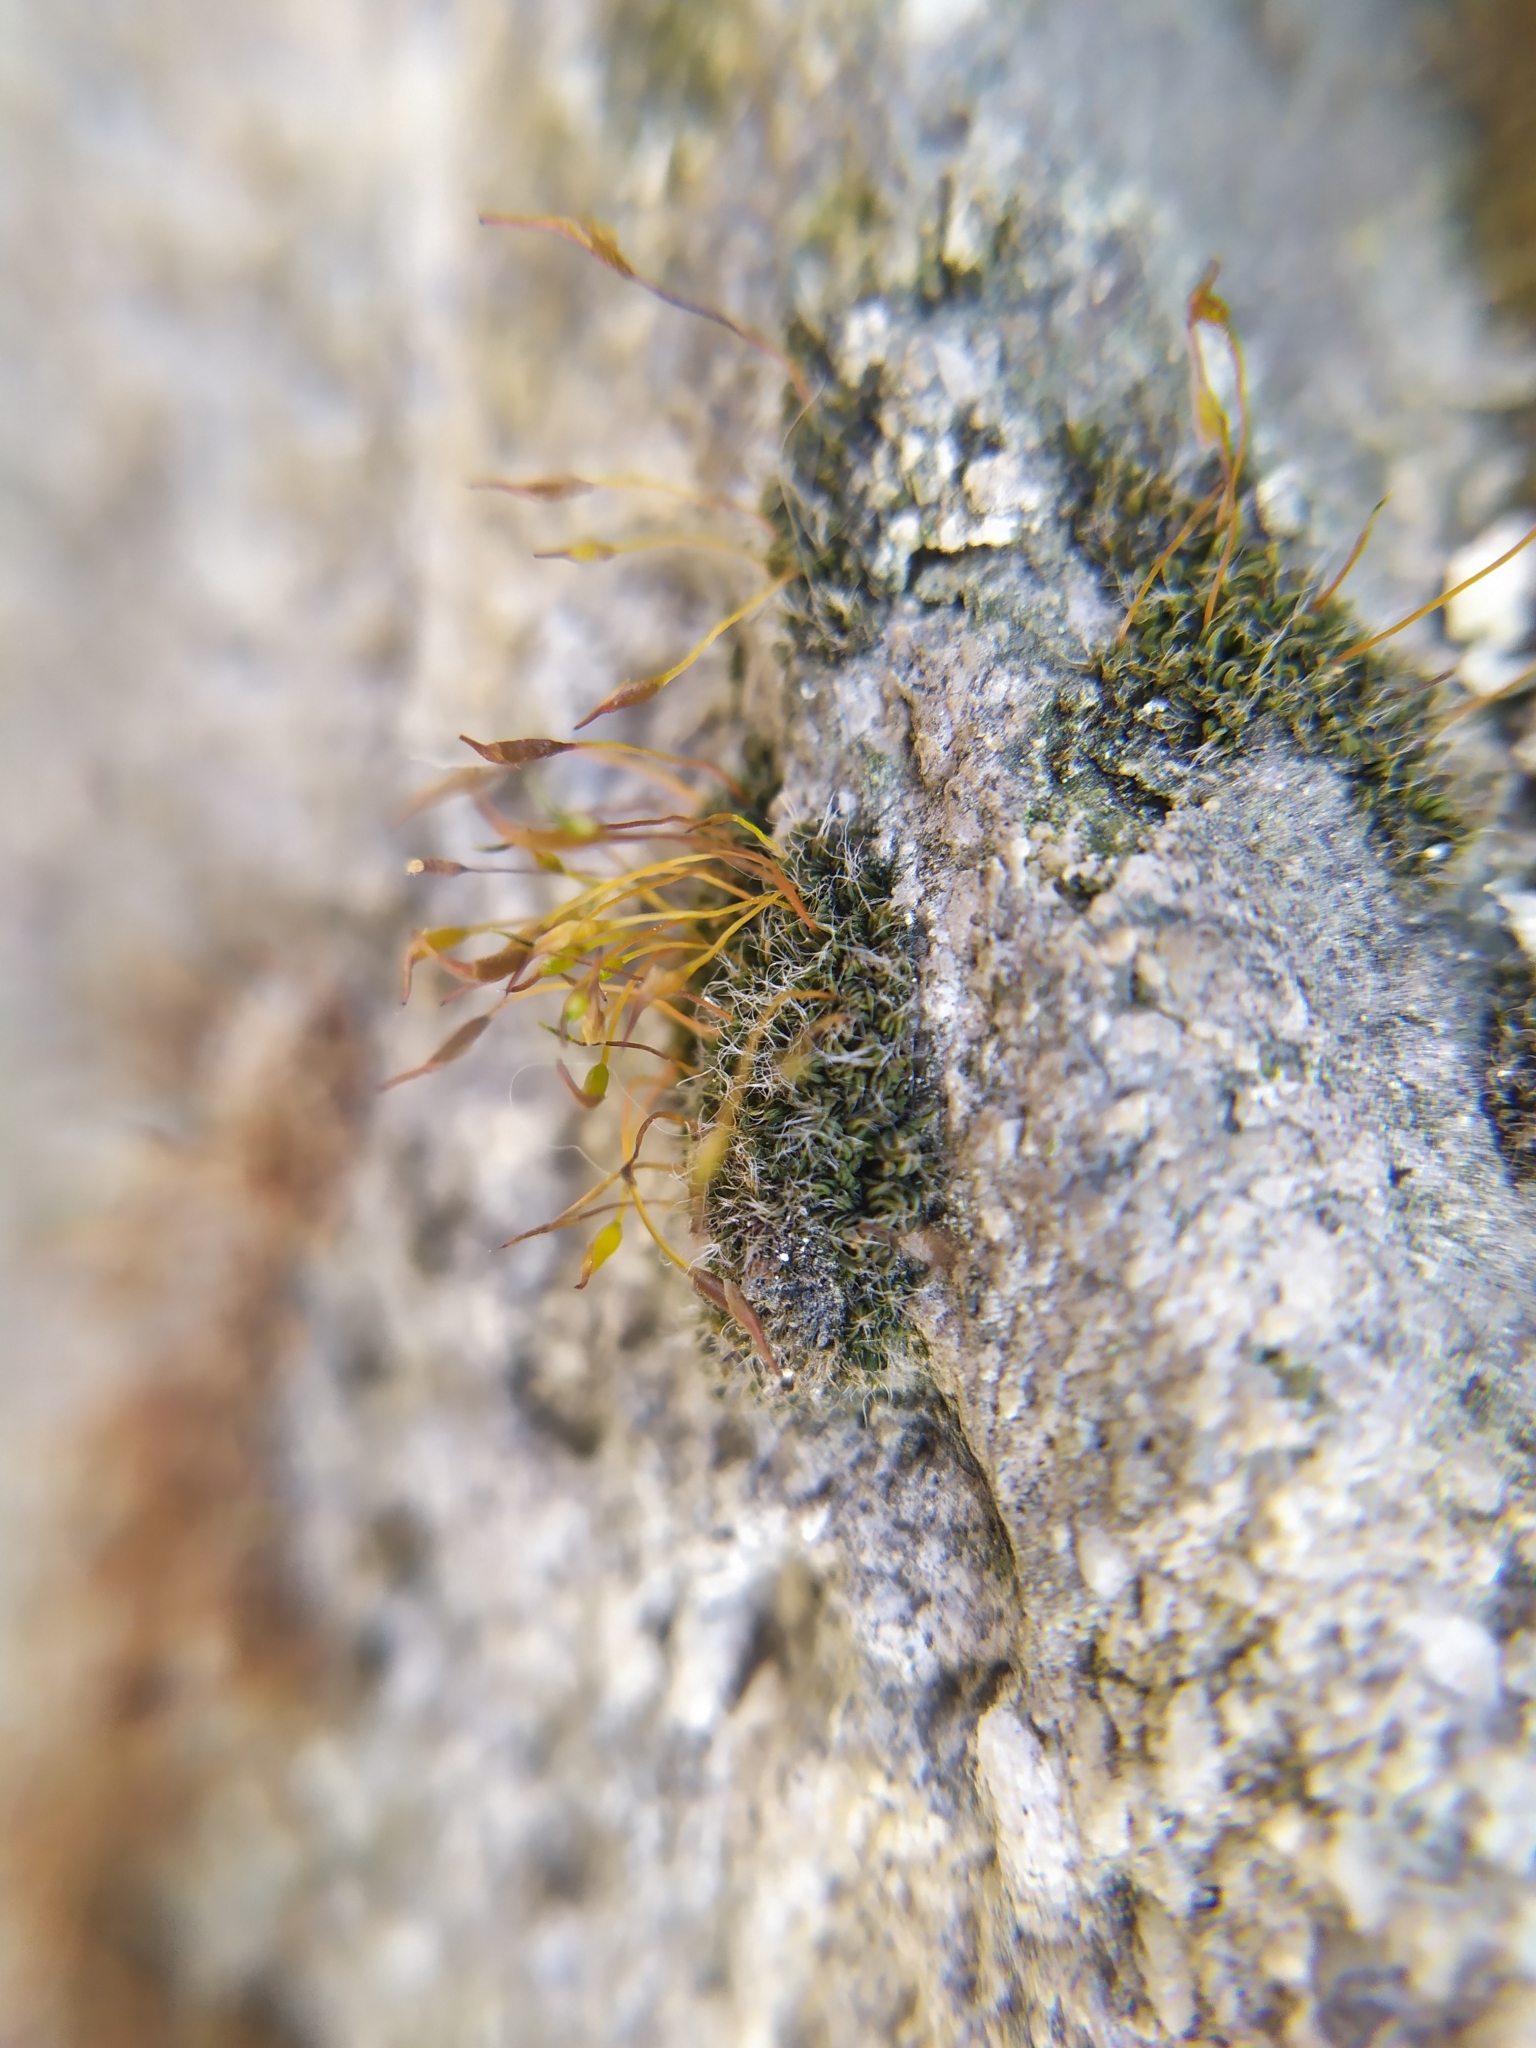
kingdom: Plantae
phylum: Bryophyta
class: Bryopsida
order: Pottiales
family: Pottiaceae
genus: Tortula
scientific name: Tortula muralis
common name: Wall screw-moss
